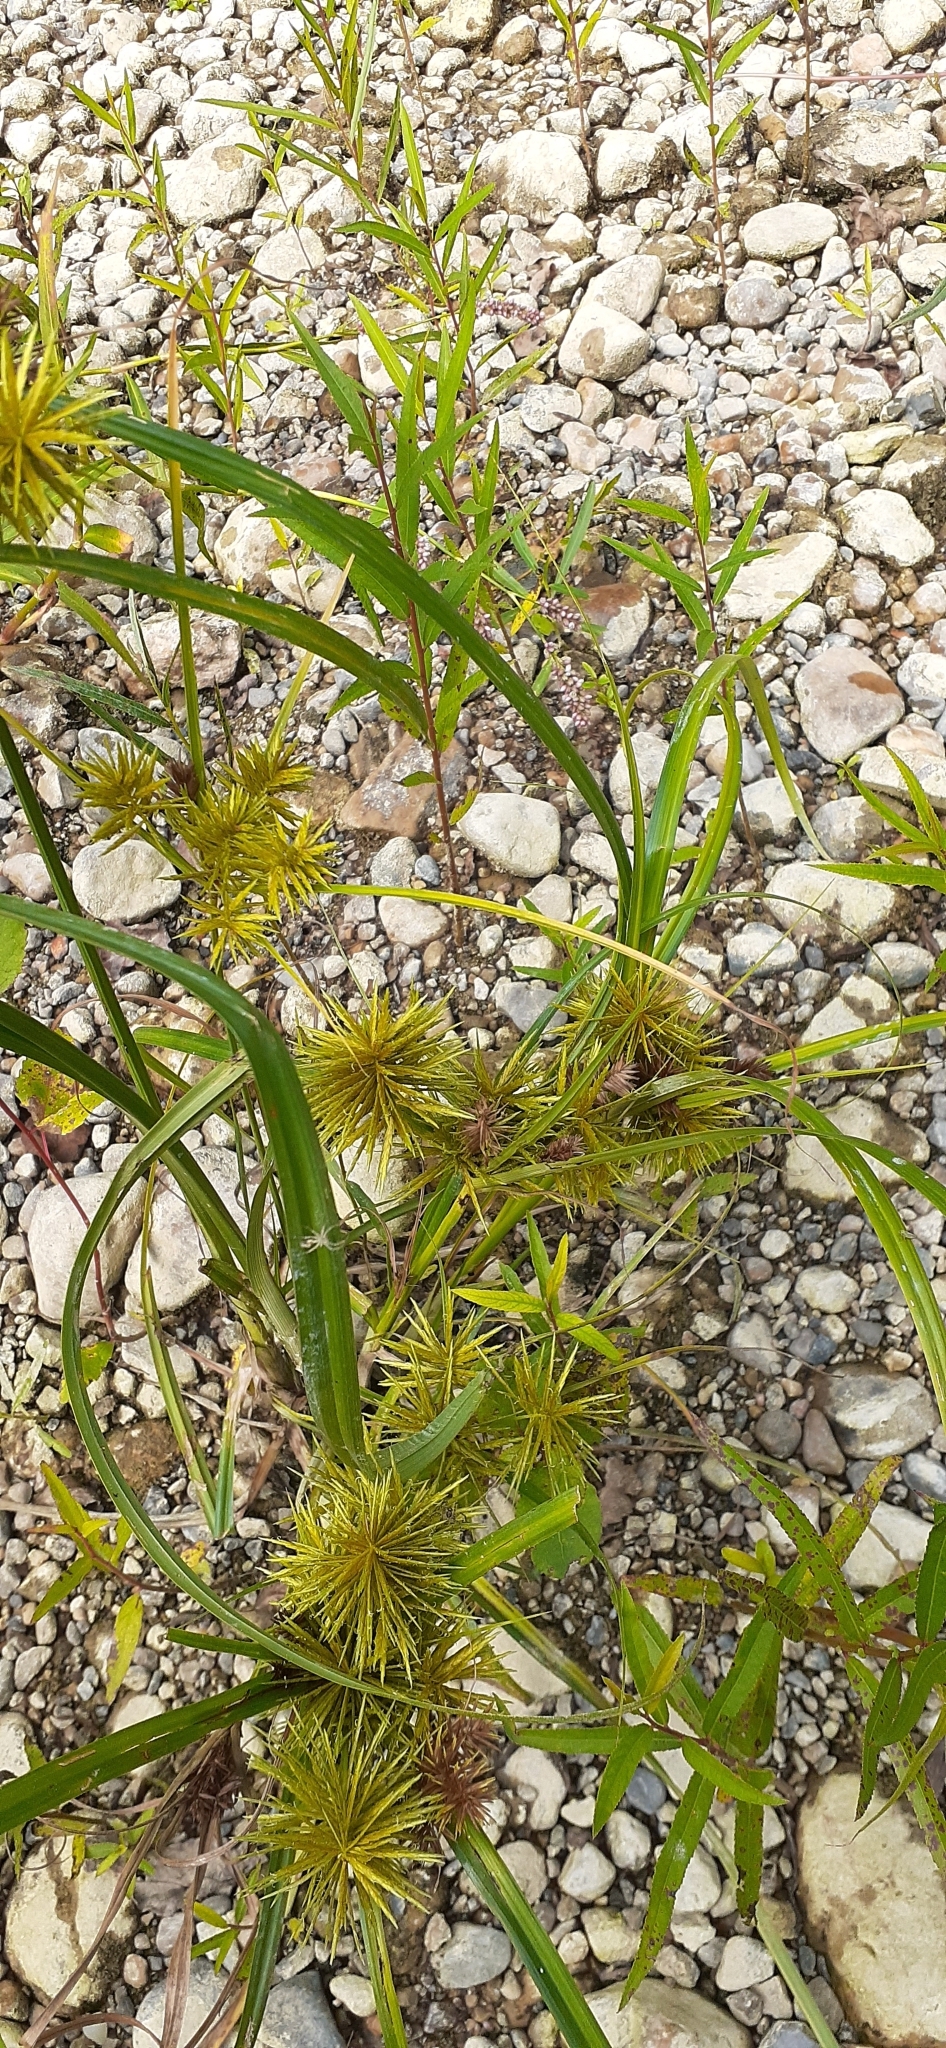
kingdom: Plantae
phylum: Tracheophyta
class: Liliopsida
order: Poales
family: Cyperaceae
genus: Cyperus
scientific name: Cyperus strigosus
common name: False nutsedge
